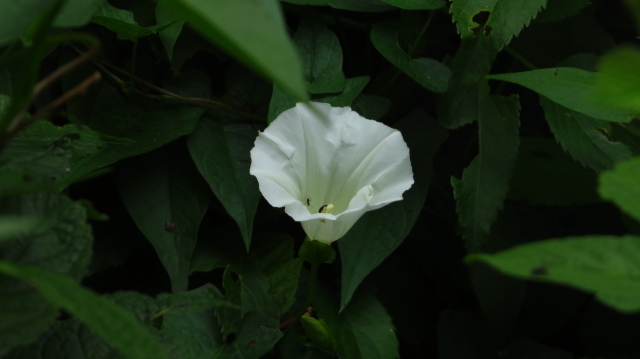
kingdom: Plantae
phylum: Tracheophyta
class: Magnoliopsida
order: Solanales
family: Convolvulaceae
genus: Calystegia
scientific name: Calystegia sepium
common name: Hedge bindweed
